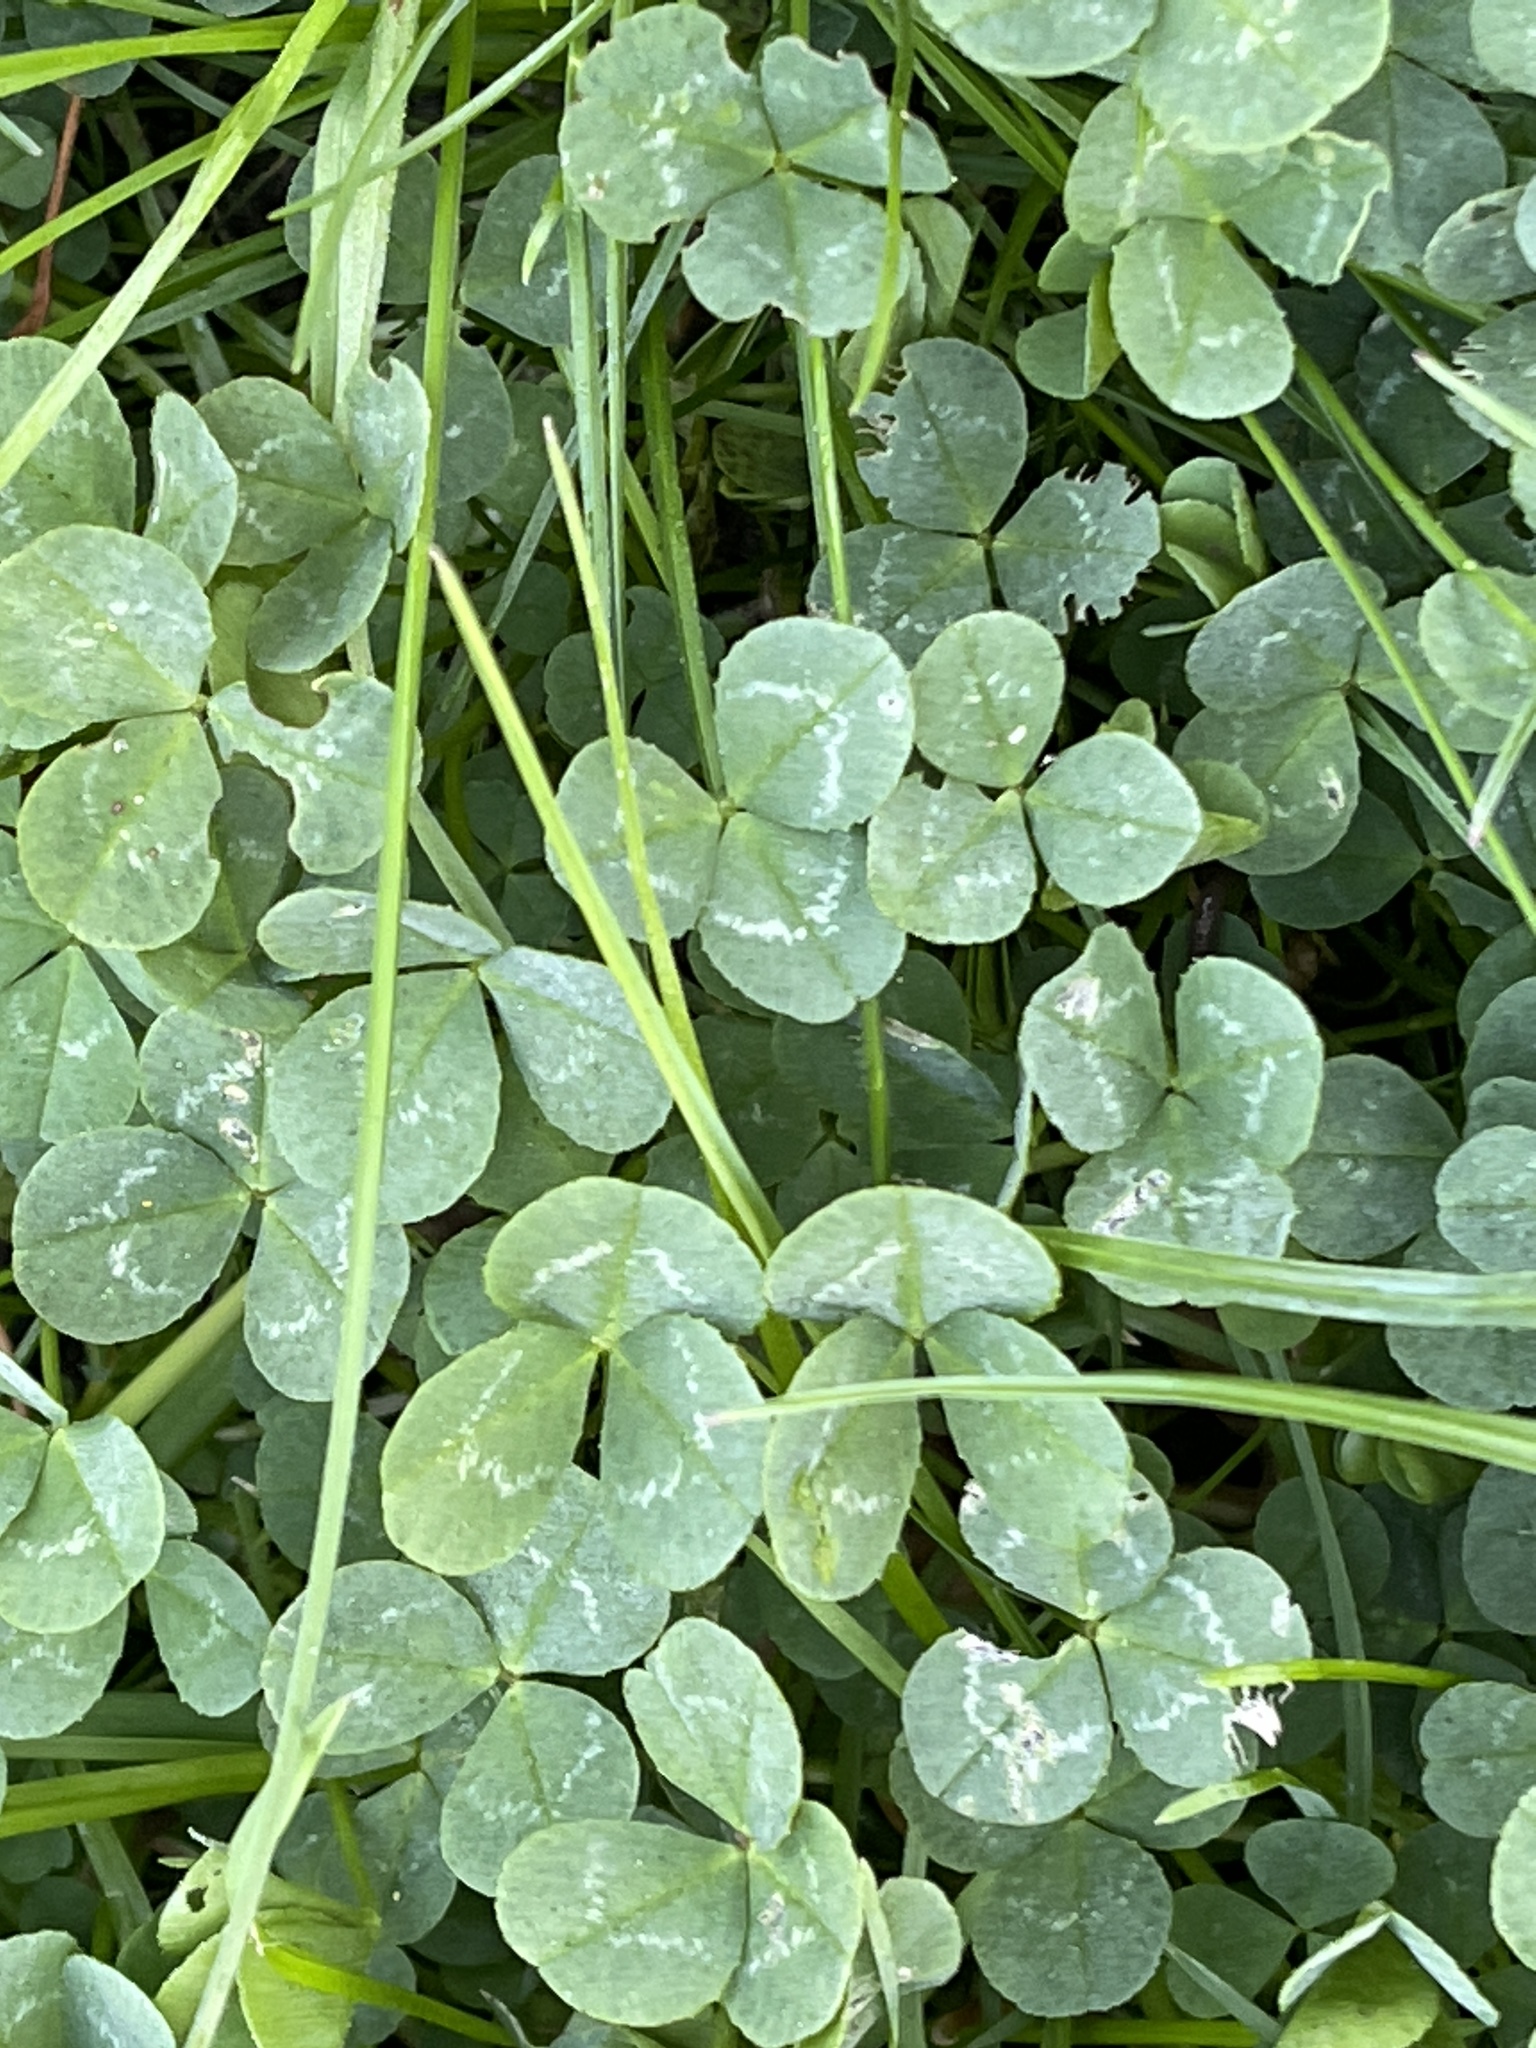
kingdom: Plantae
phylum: Tracheophyta
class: Magnoliopsida
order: Fabales
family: Fabaceae
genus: Trifolium
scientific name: Trifolium repens
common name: White clover
